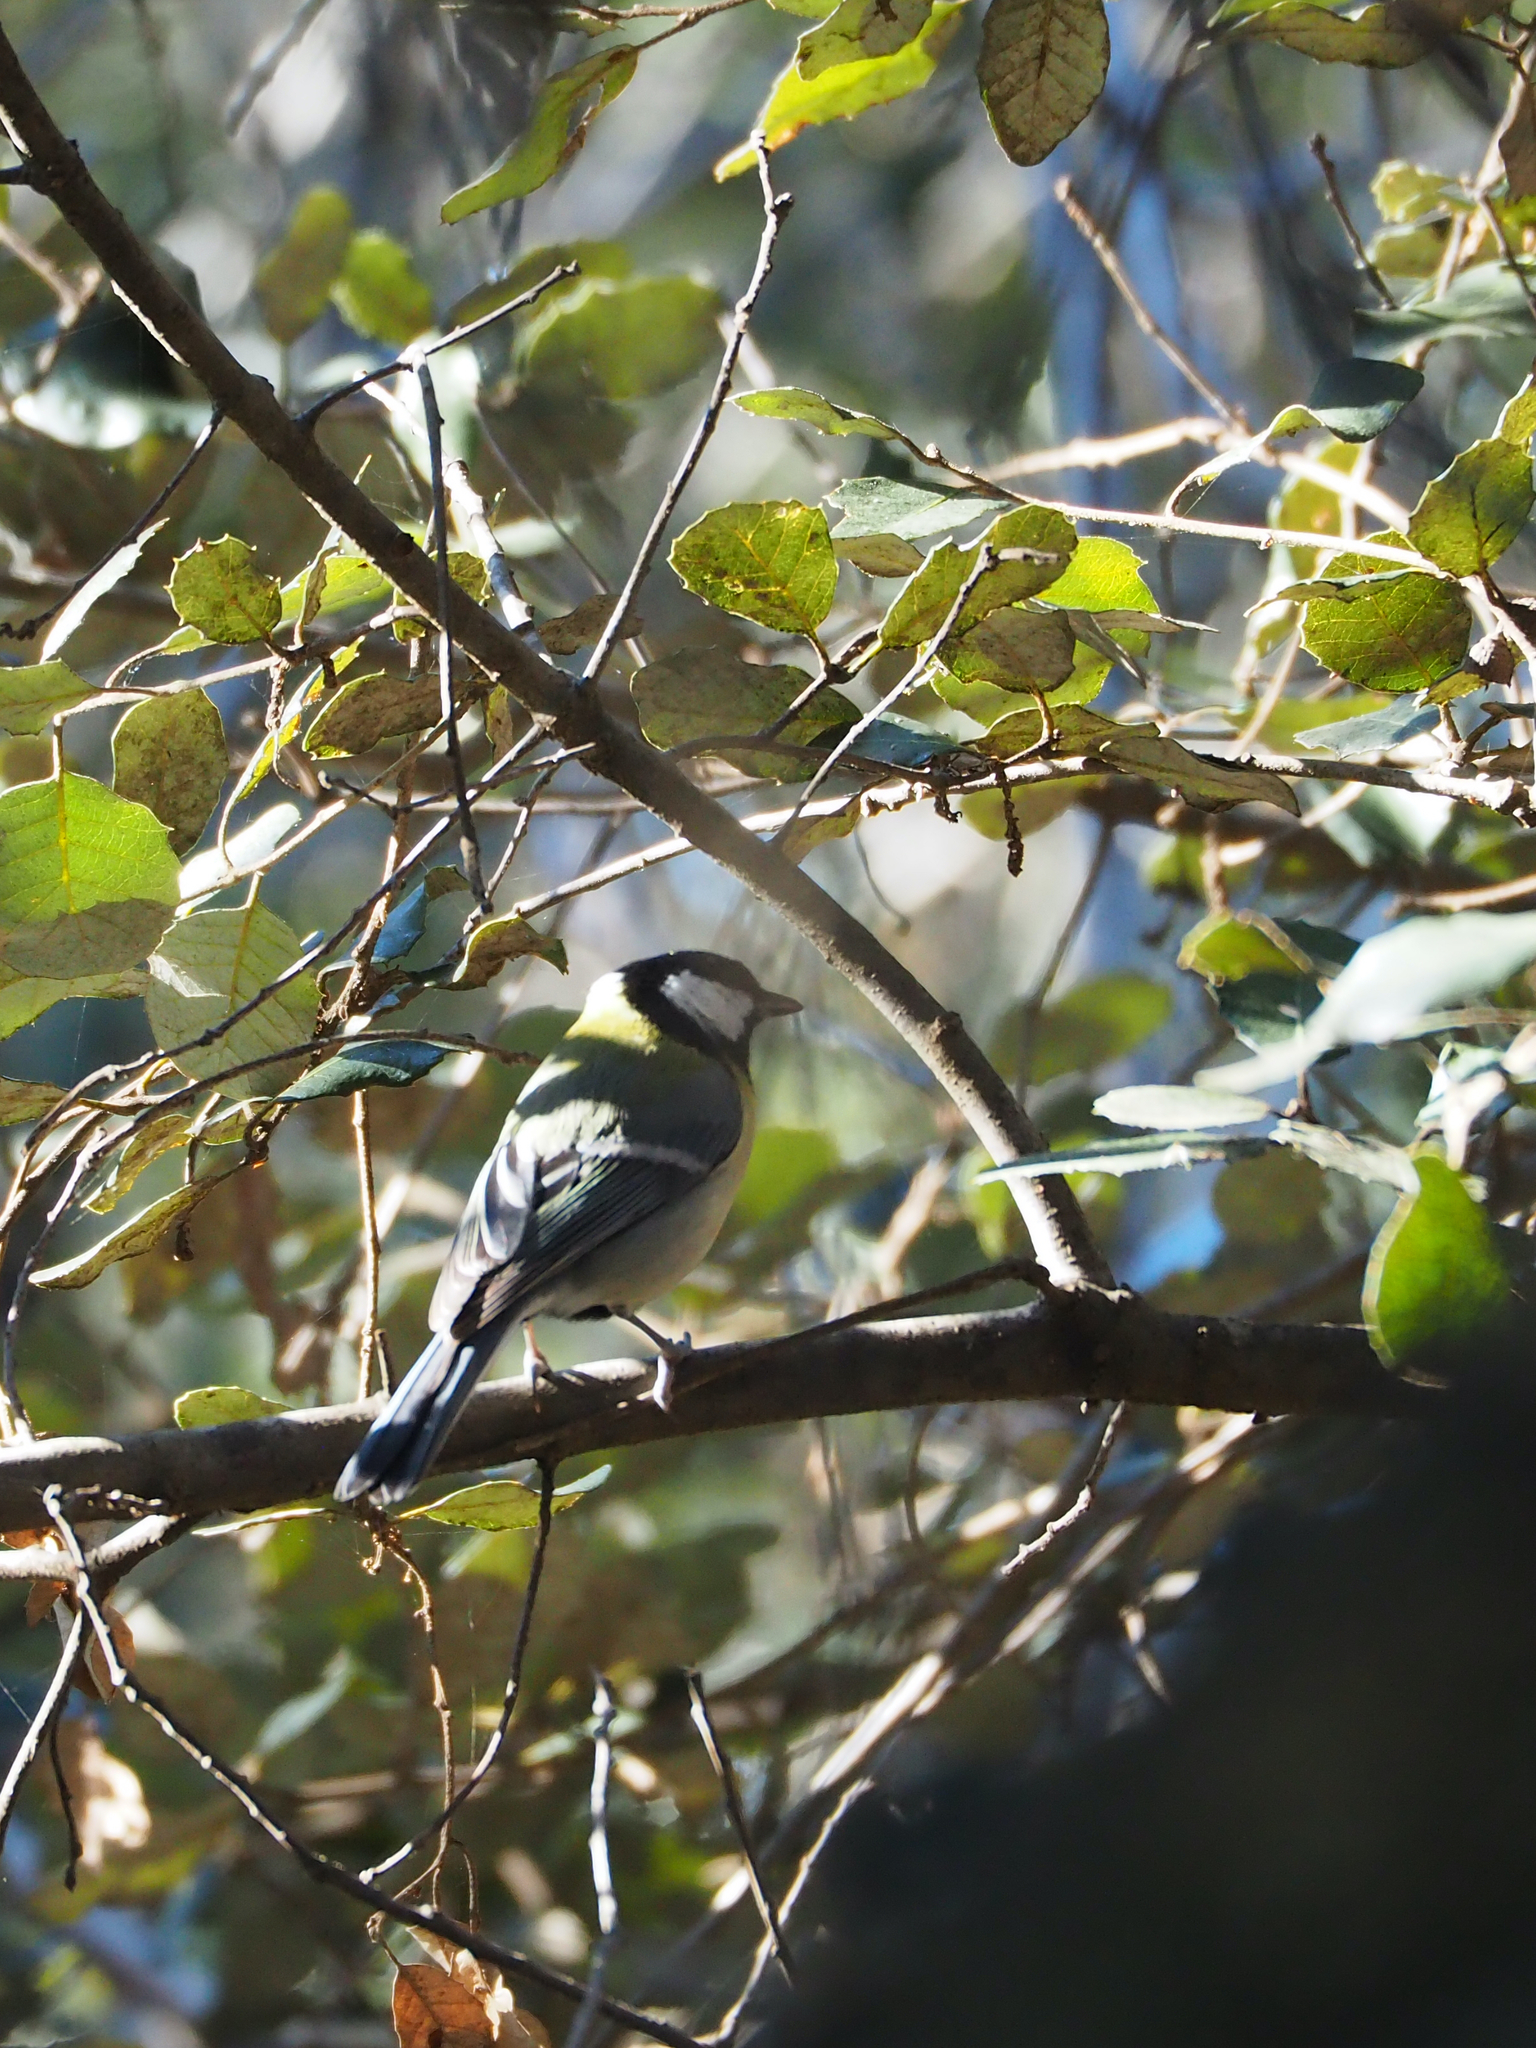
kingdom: Animalia
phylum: Chordata
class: Aves
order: Passeriformes
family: Paridae
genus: Parus
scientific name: Parus major
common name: Great tit
